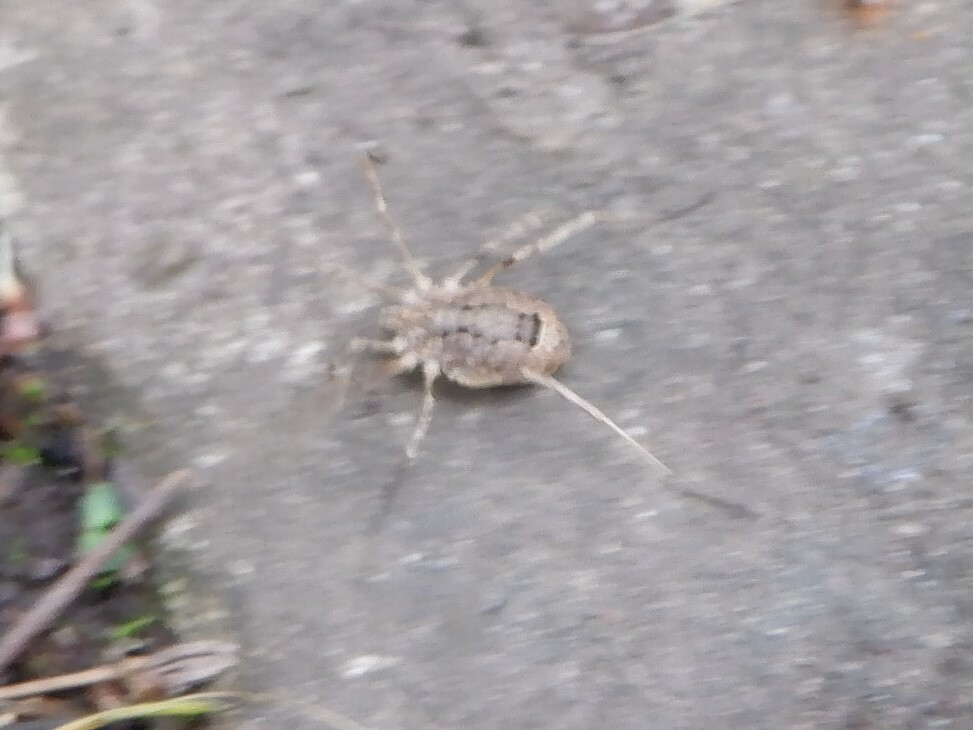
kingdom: Animalia
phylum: Arthropoda
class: Arachnida
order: Opiliones
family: Phalangiidae
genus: Odiellus
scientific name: Odiellus spinosus
